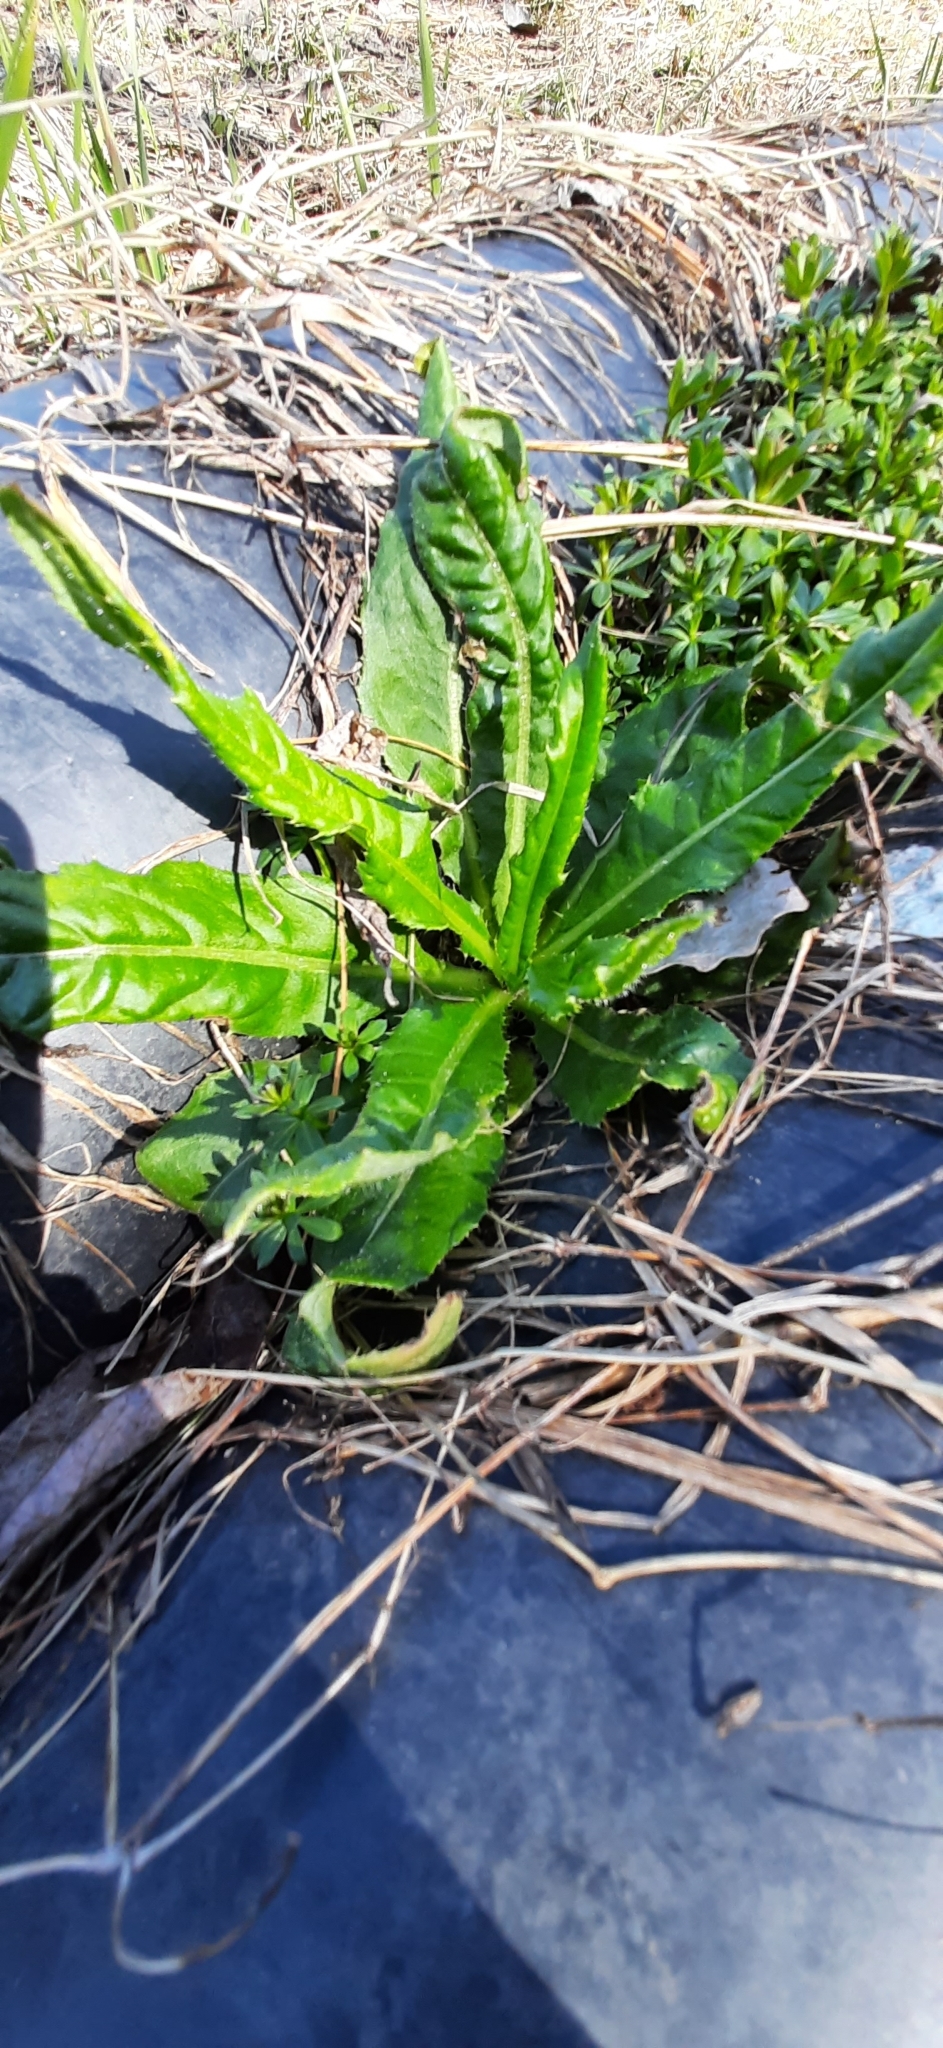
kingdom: Plantae
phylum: Tracheophyta
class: Magnoliopsida
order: Asterales
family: Asteraceae
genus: Cirsium
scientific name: Cirsium arvense
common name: Creeping thistle
